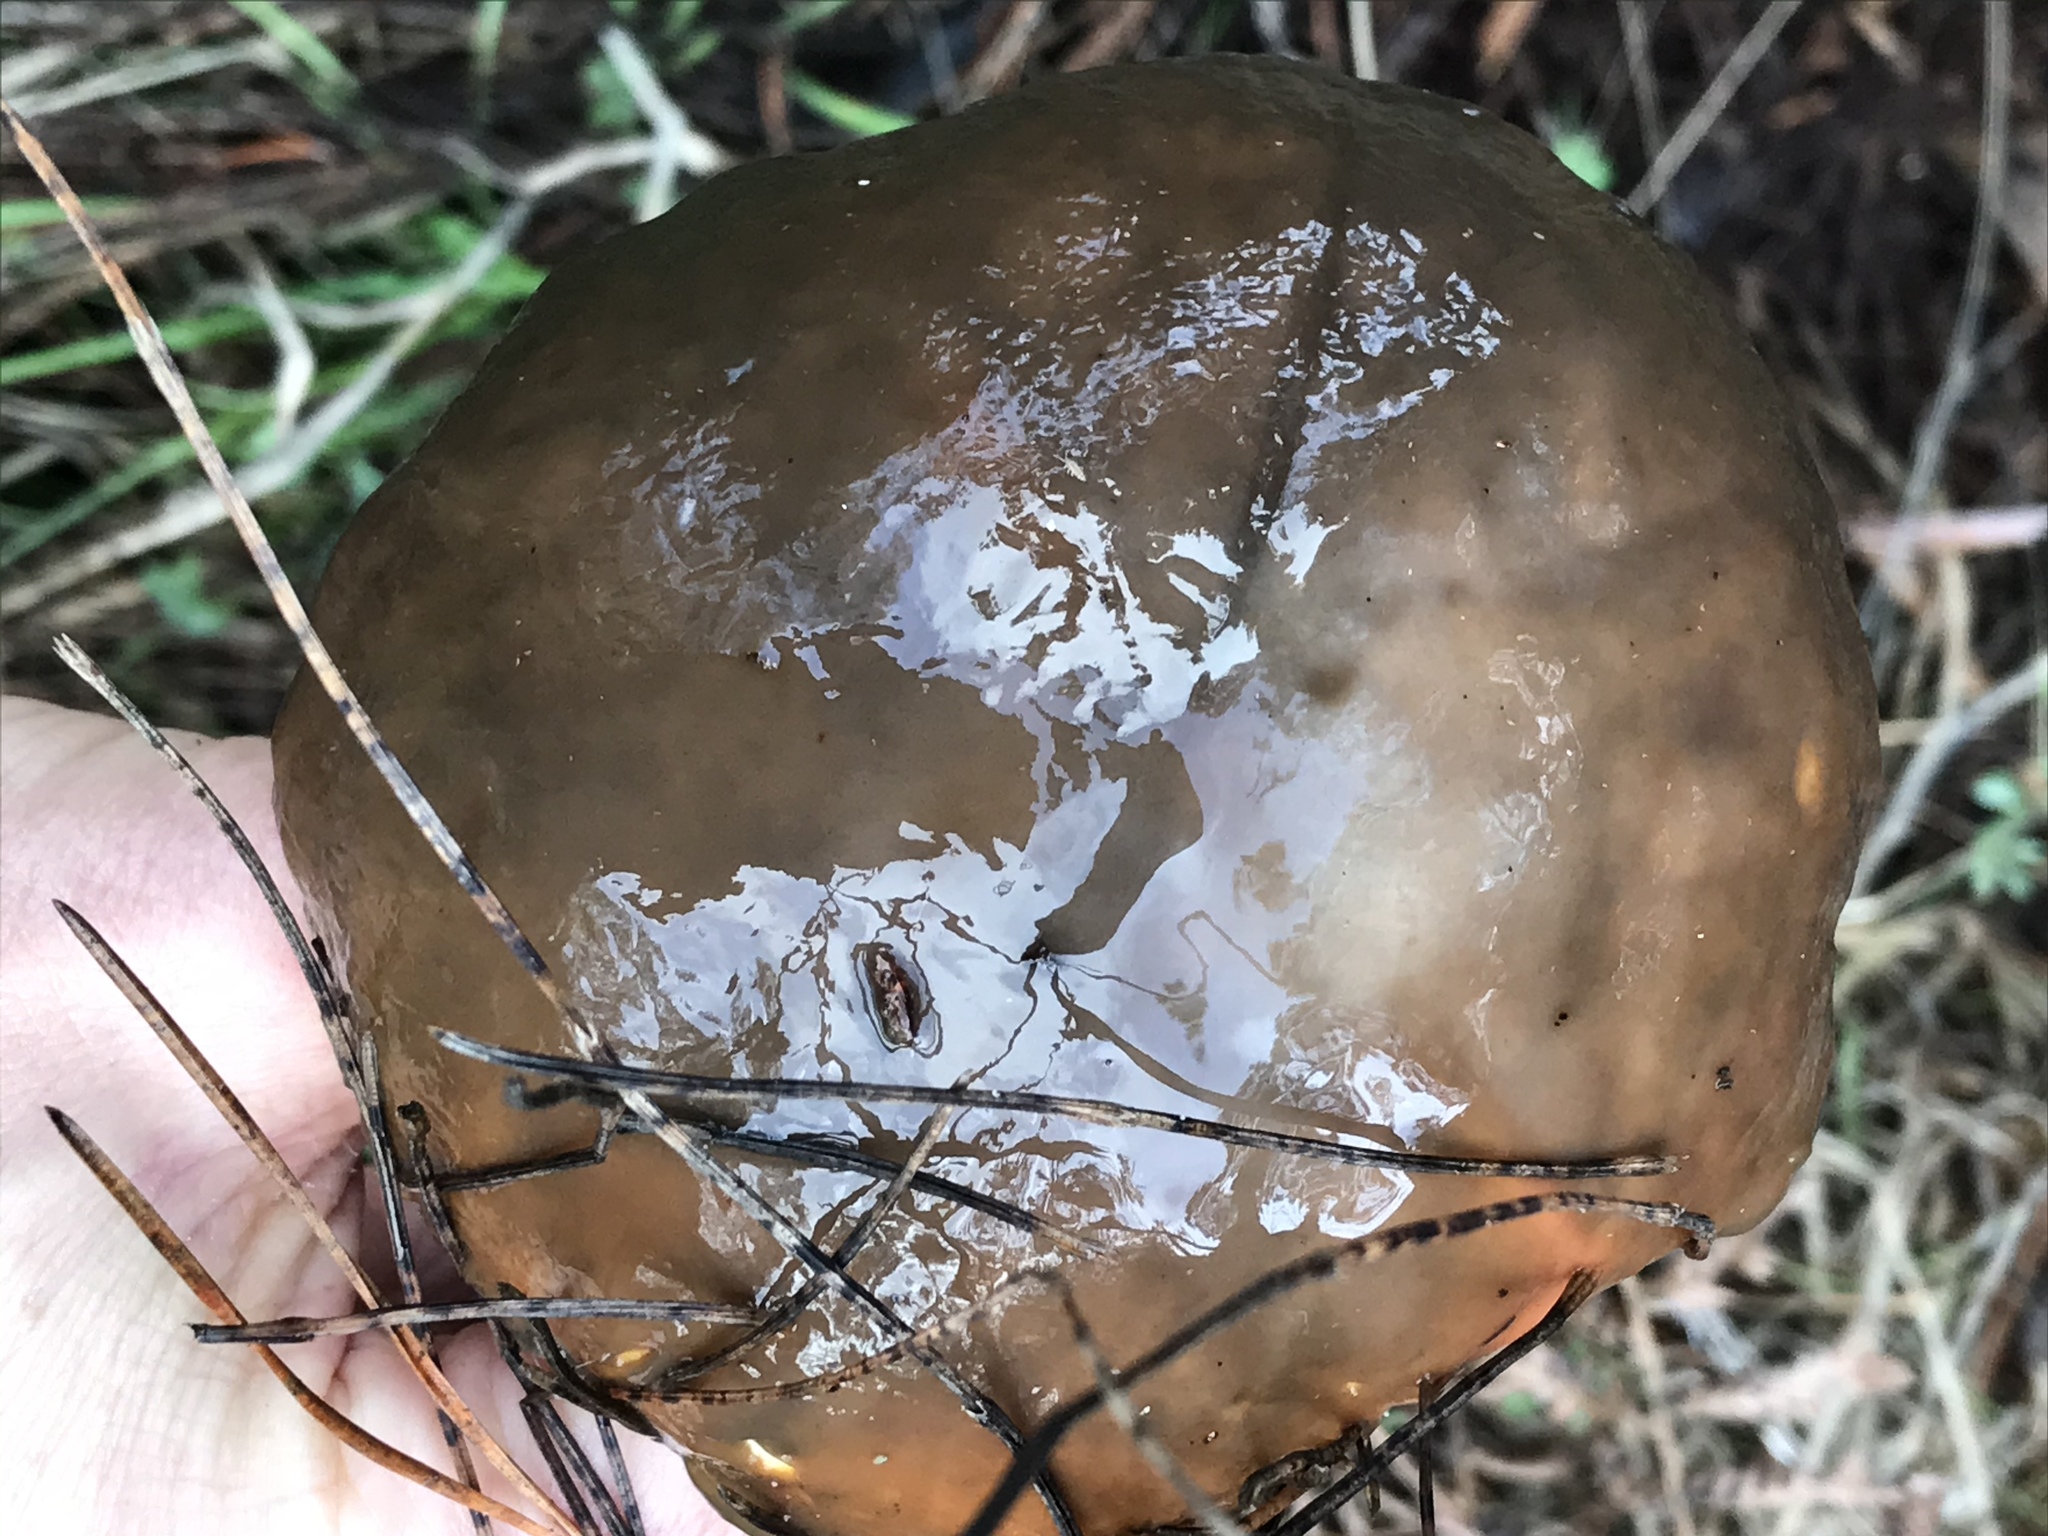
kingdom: Fungi
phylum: Basidiomycota
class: Agaricomycetes
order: Boletales
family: Suillaceae
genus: Suillus
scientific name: Suillus pungens
